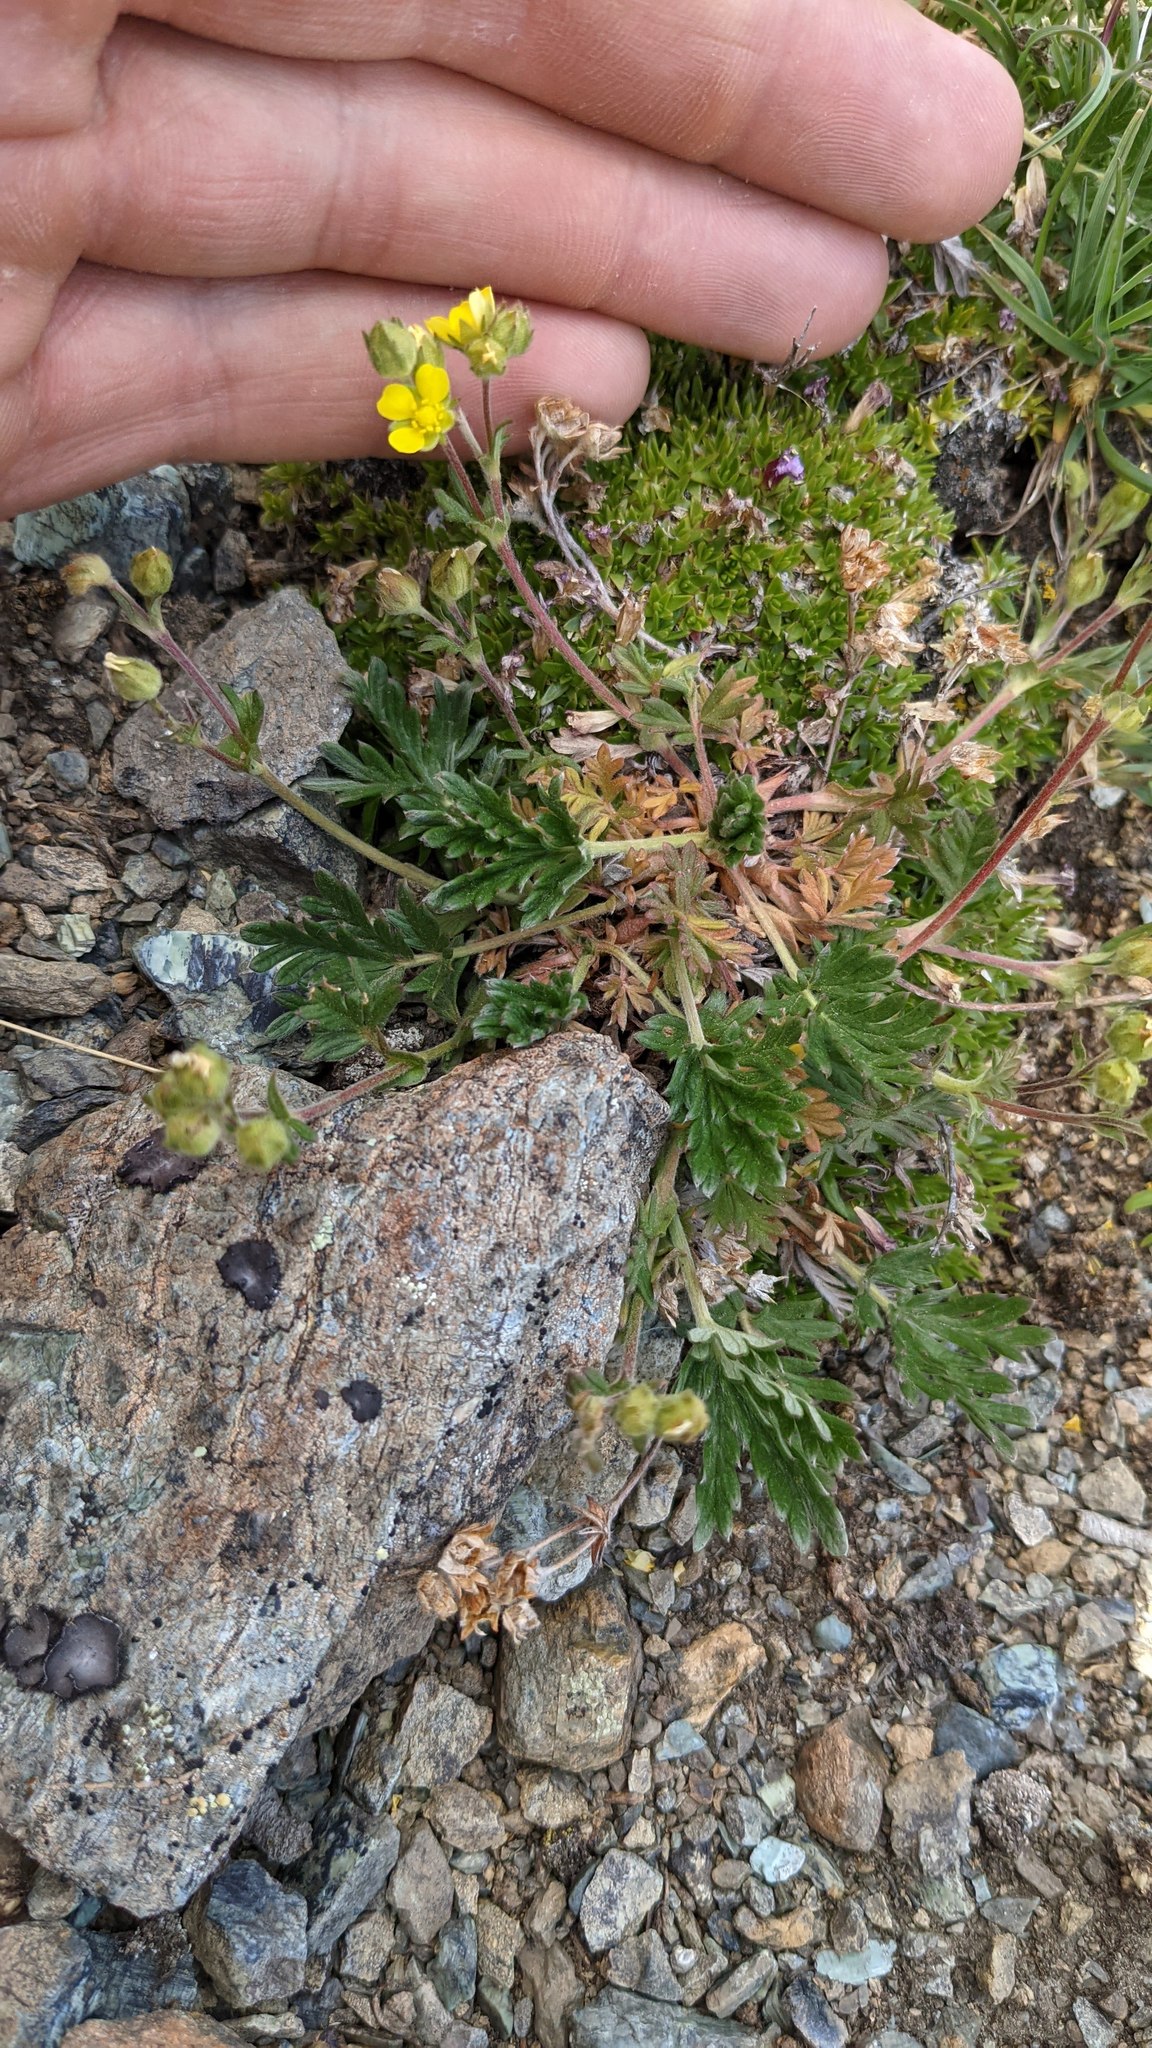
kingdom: Plantae
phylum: Tracheophyta
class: Magnoliopsida
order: Rosales
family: Rosaceae
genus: Potentilla
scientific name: Potentilla jepsonii
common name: Jepson's cinquefoil
